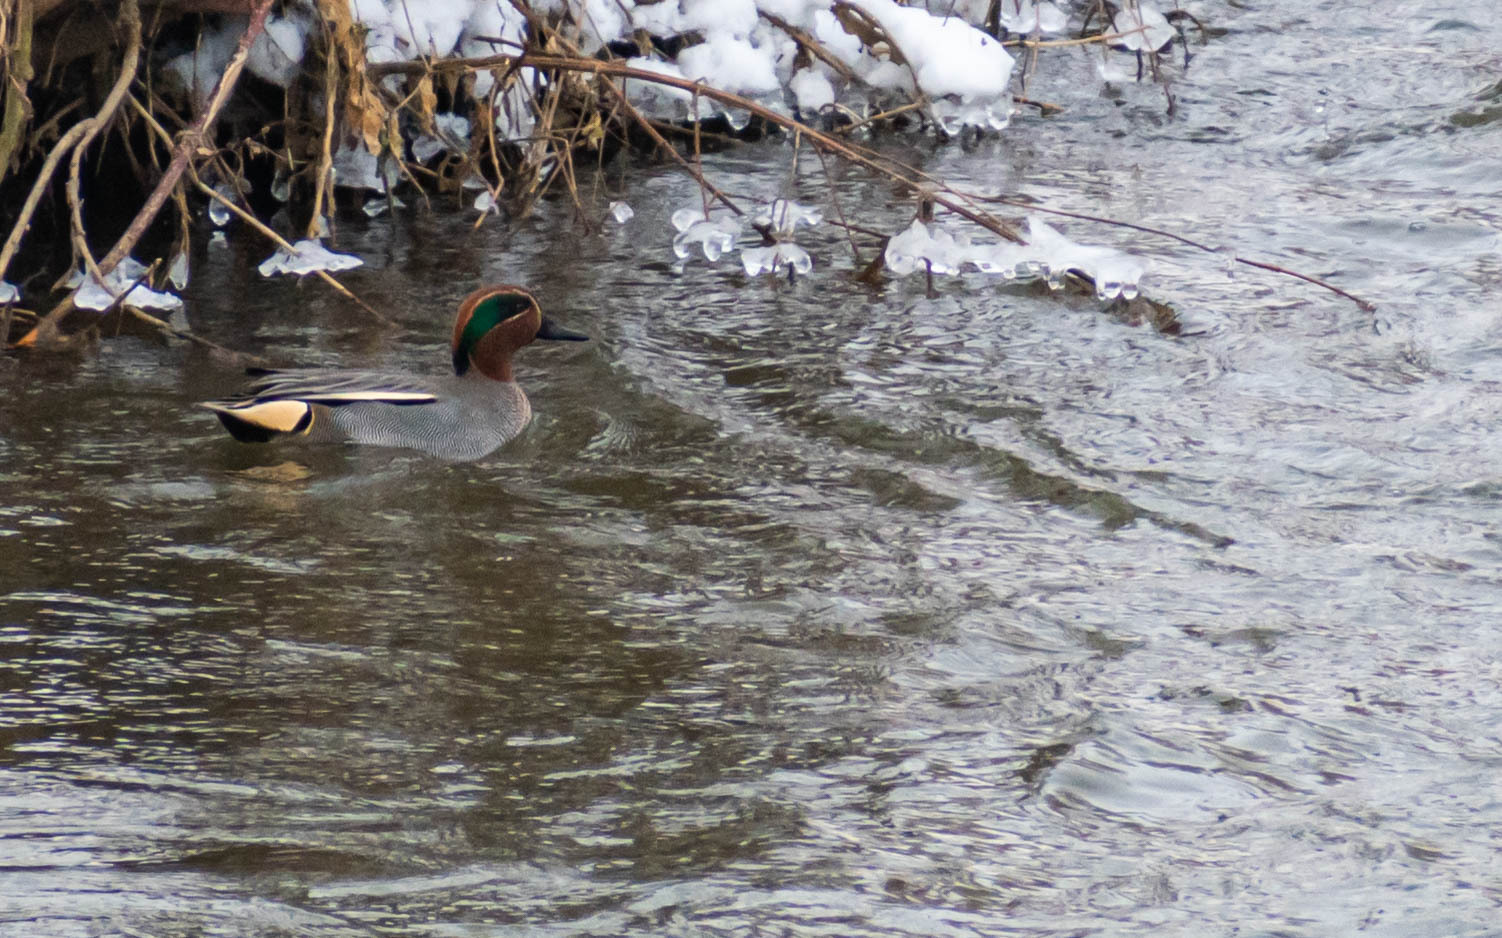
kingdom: Animalia
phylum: Chordata
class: Aves
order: Anseriformes
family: Anatidae
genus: Anas
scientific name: Anas crecca
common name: Eurasian teal
